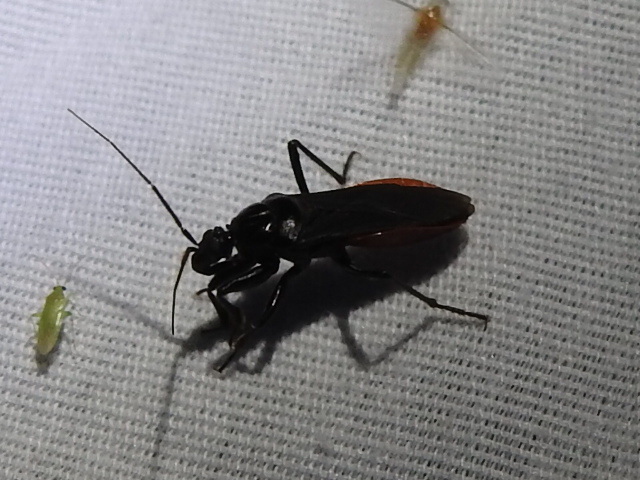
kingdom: Animalia
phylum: Arthropoda
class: Insecta
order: Hemiptera
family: Reduviidae
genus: Melanolestes
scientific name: Melanolestes picipes
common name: Assassin bug
